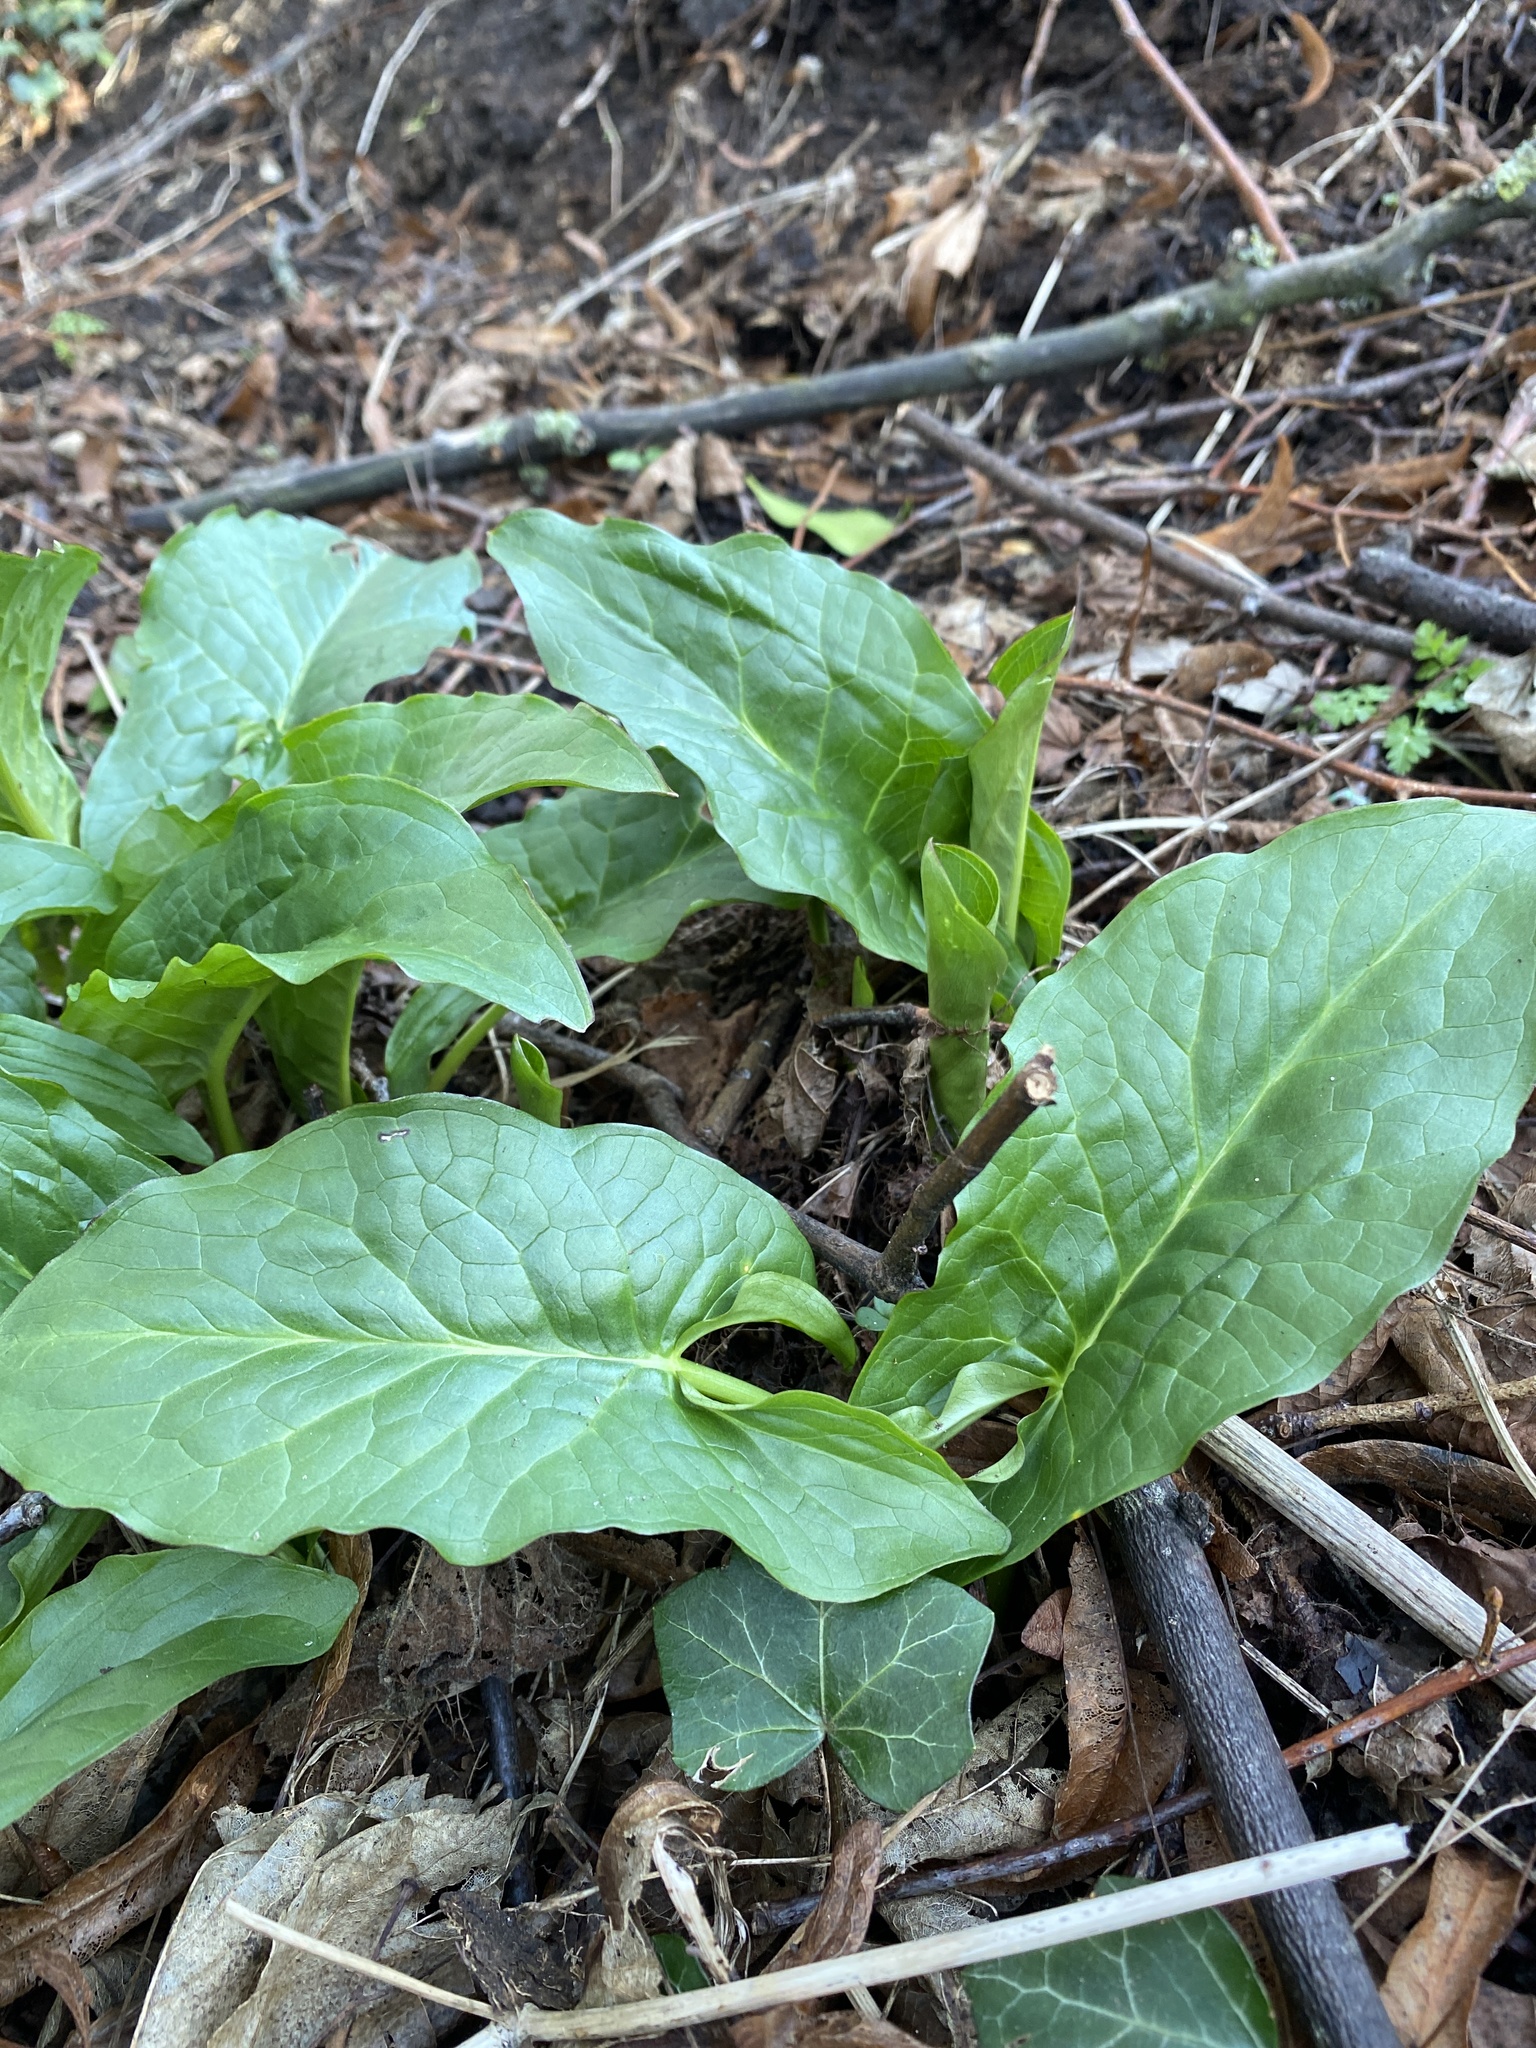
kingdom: Plantae
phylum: Tracheophyta
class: Liliopsida
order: Alismatales
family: Araceae
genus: Arum
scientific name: Arum maculatum
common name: Lords-and-ladies
